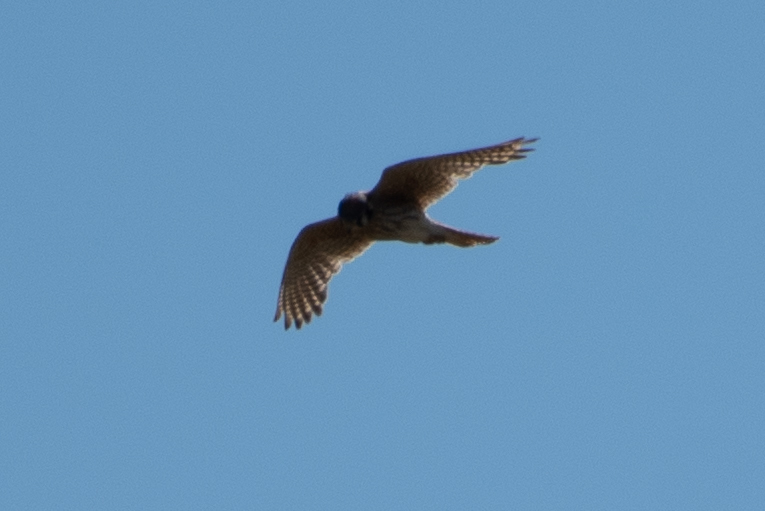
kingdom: Animalia
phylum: Chordata
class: Aves
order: Falconiformes
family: Falconidae
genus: Falco
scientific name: Falco sparverius
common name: American kestrel
